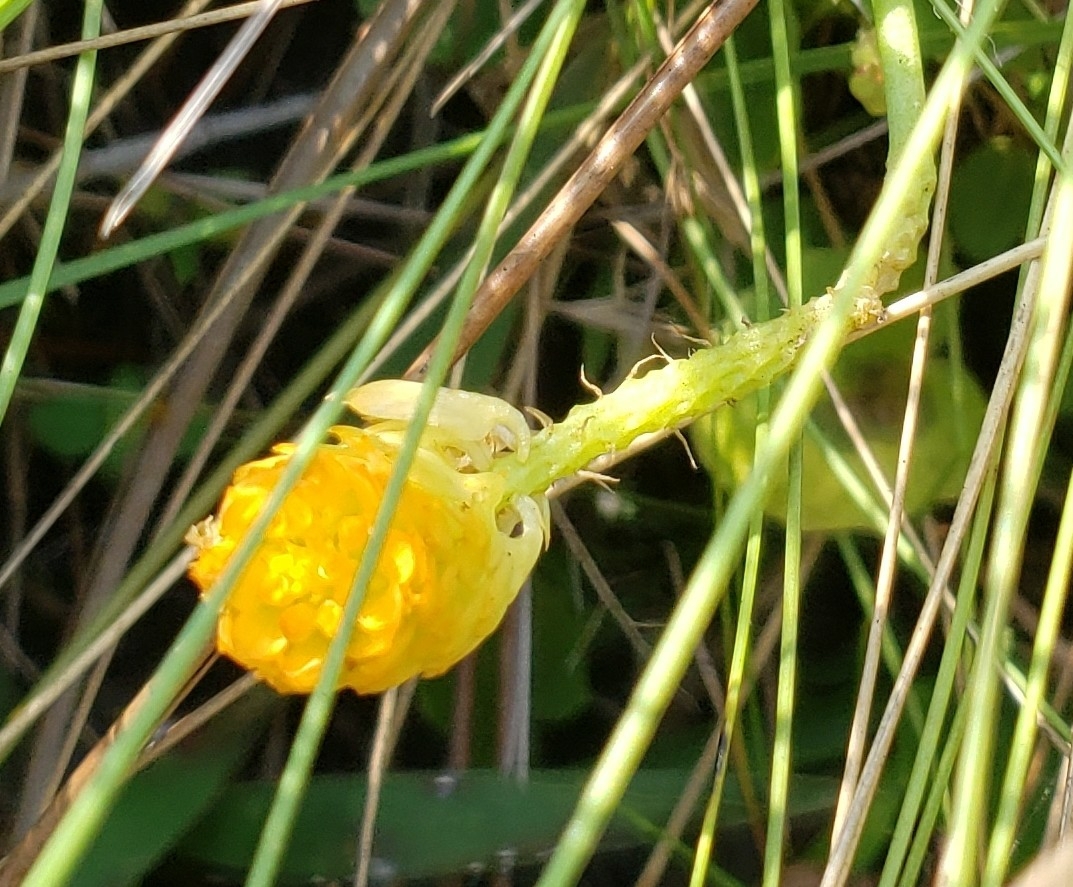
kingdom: Plantae
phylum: Tracheophyta
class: Magnoliopsida
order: Fabales
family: Polygalaceae
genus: Polygala
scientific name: Polygala lutea
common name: Orange milkwort
